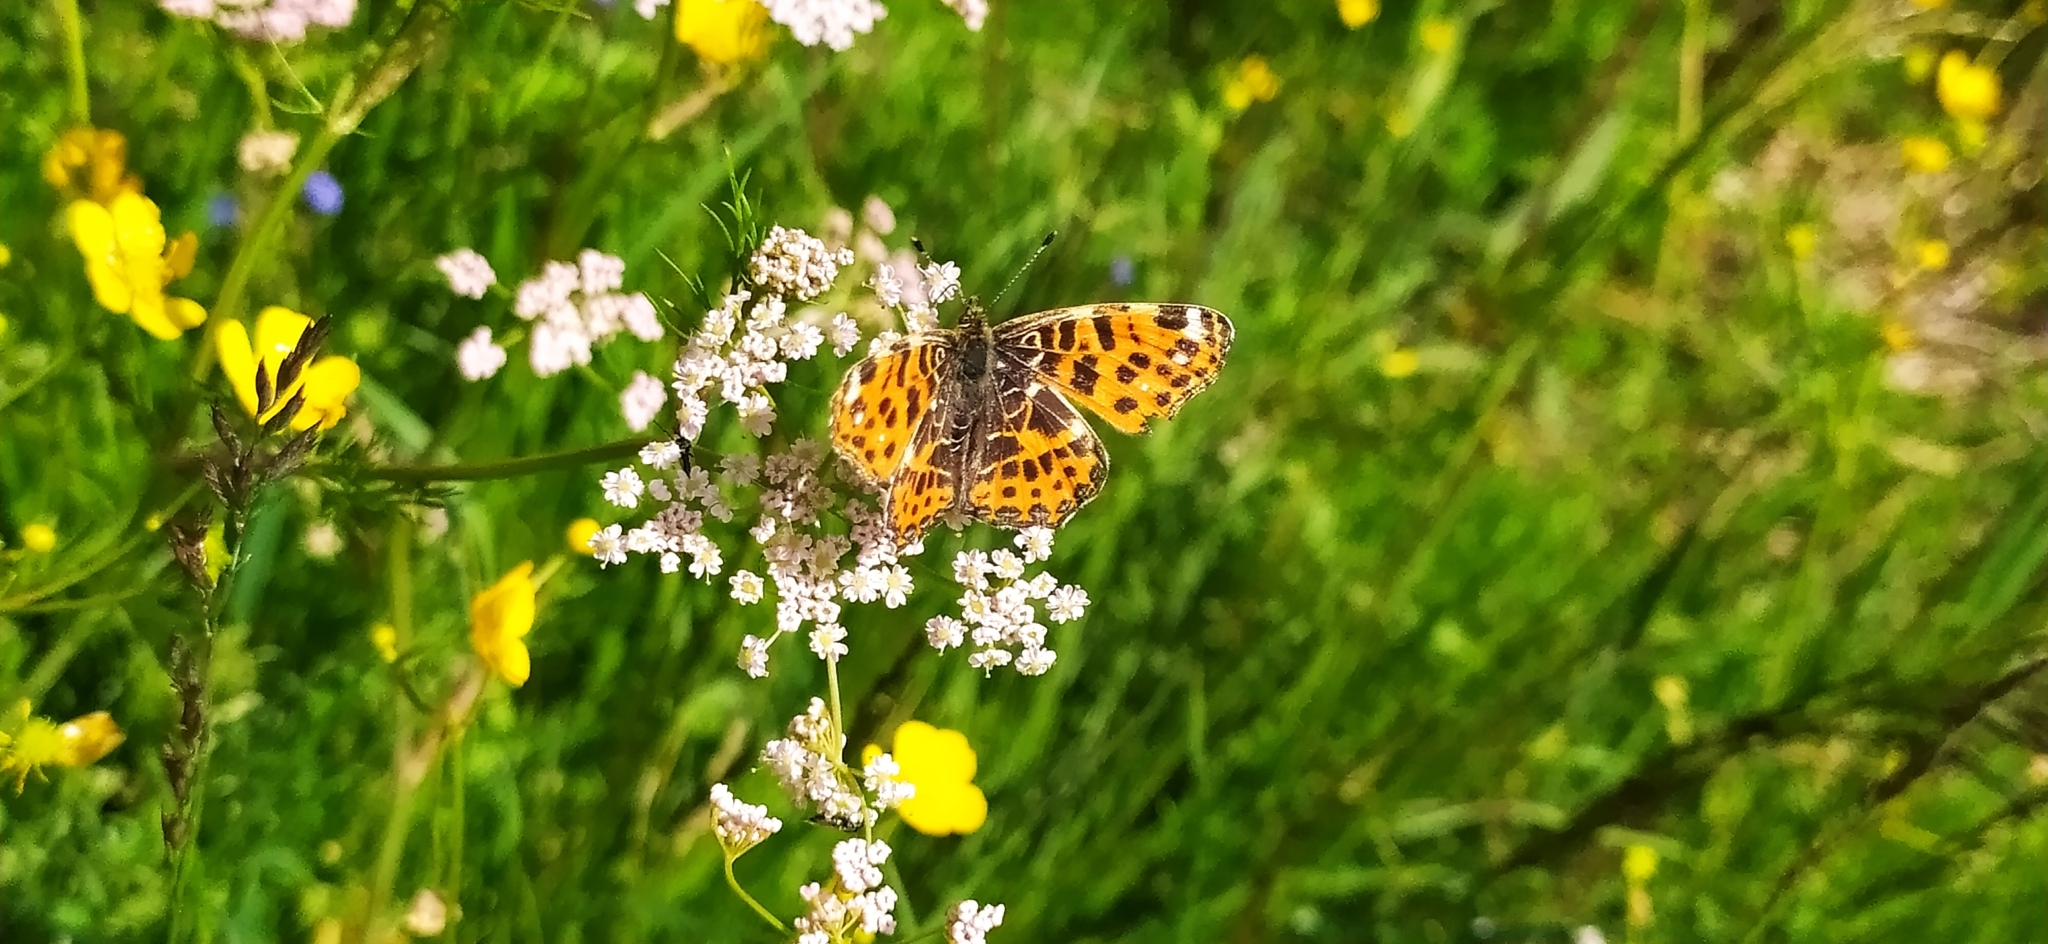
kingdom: Animalia
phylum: Arthropoda
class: Insecta
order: Lepidoptera
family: Nymphalidae
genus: Araschnia
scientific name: Araschnia levana
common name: Map butterfly
